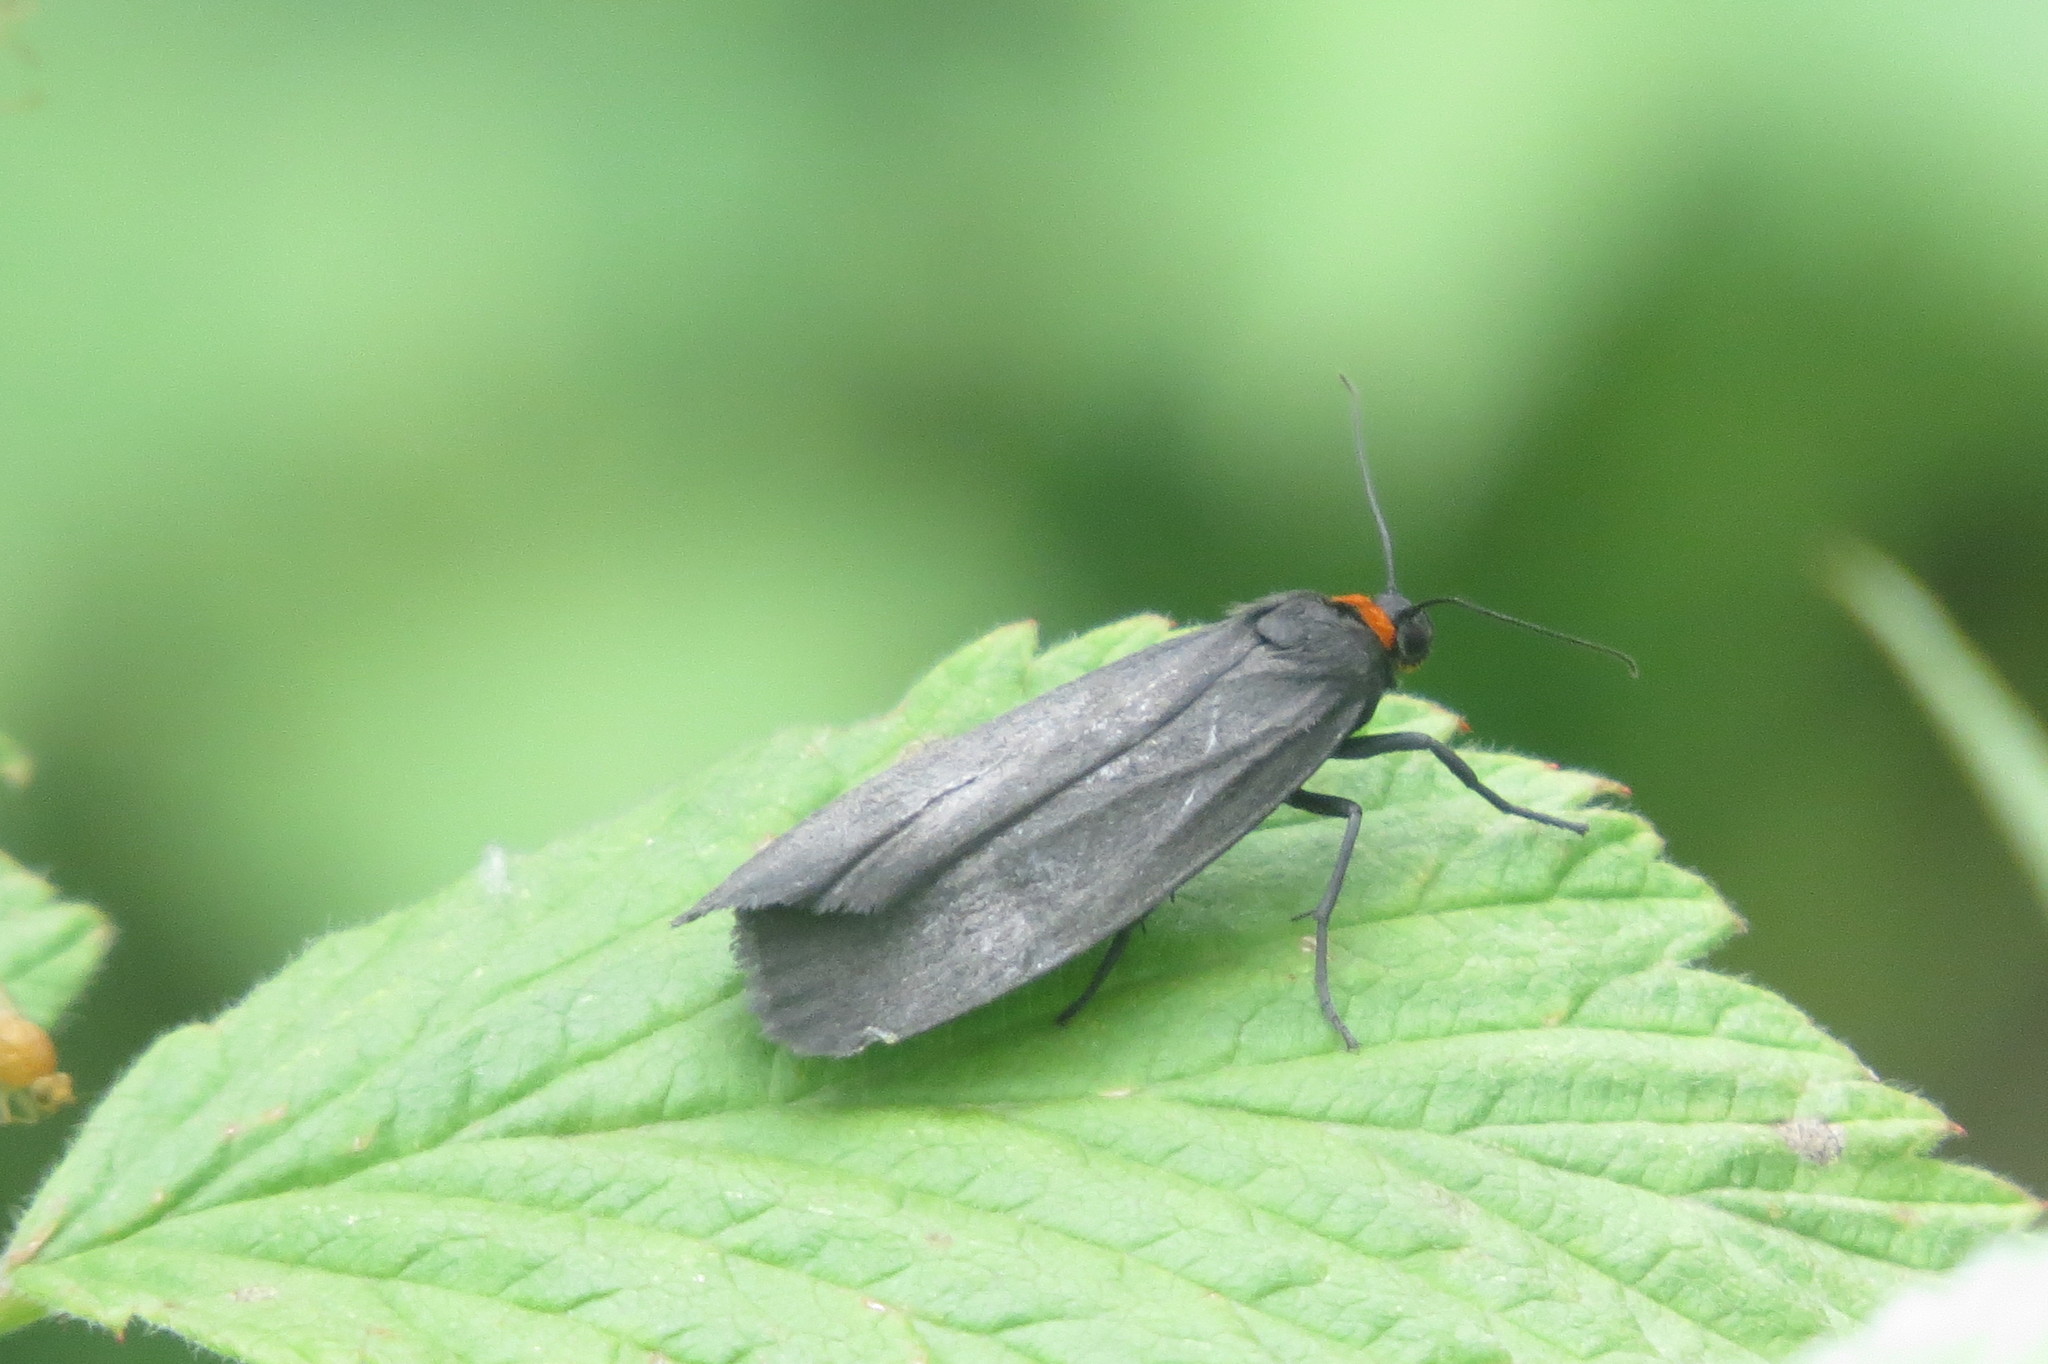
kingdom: Animalia
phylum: Arthropoda
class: Insecta
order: Lepidoptera
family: Erebidae
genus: Atolmis
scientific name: Atolmis rubricollis
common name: Red-necked footman
